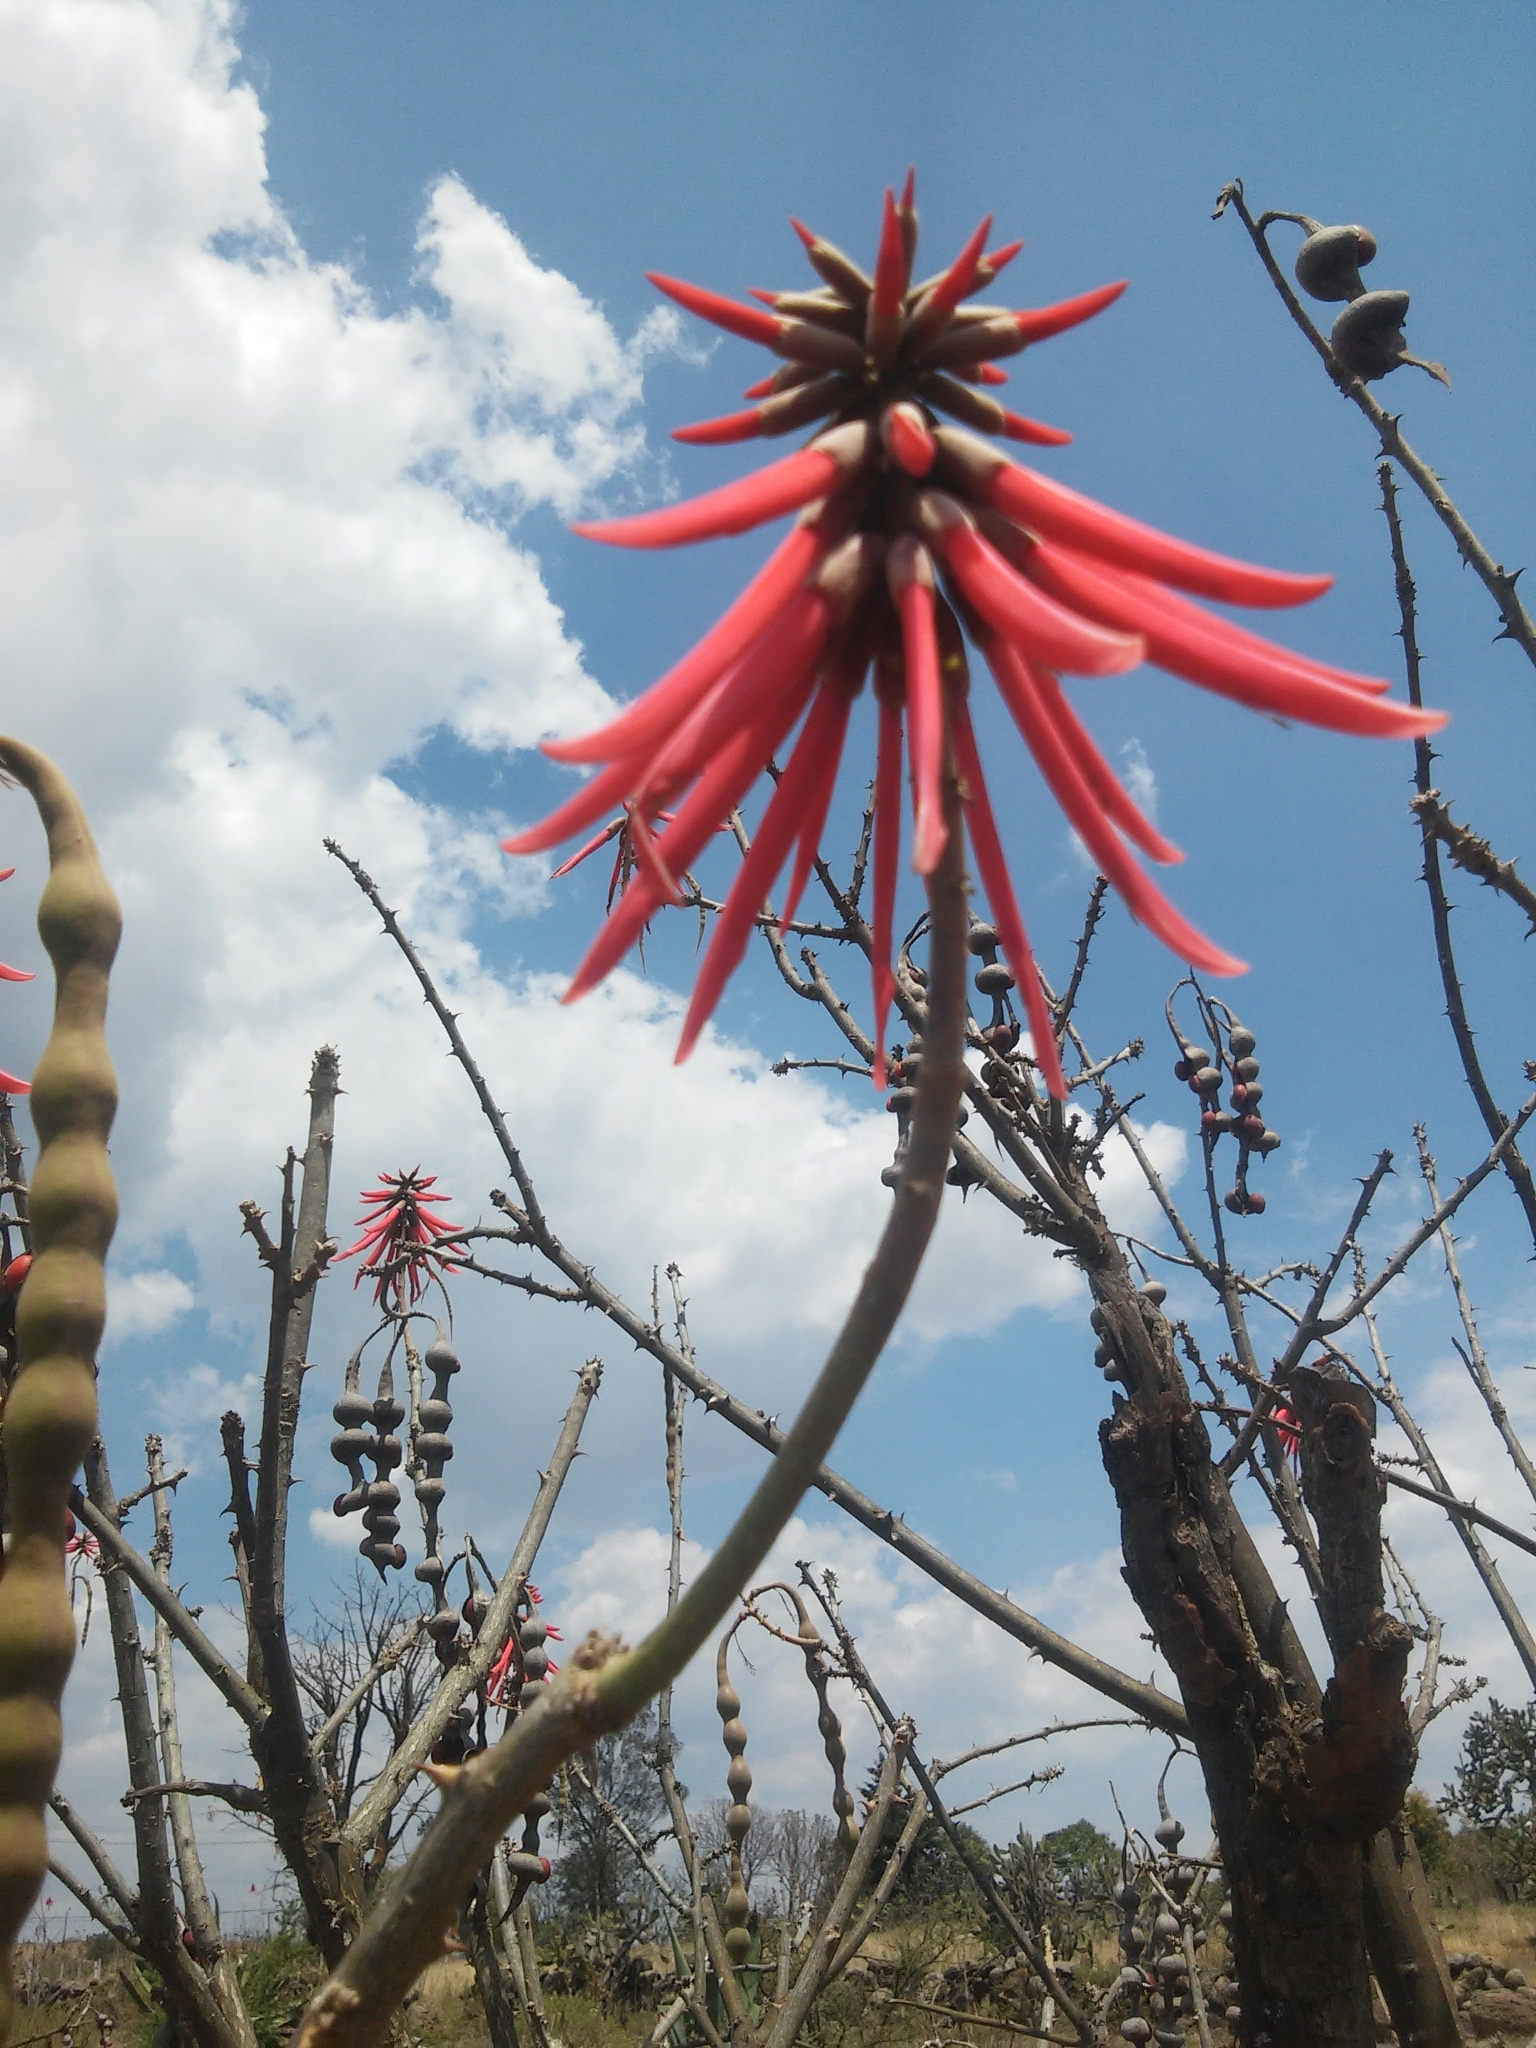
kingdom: Plantae
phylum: Tracheophyta
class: Magnoliopsida
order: Fabales
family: Fabaceae
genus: Erythrina
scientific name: Erythrina americana
